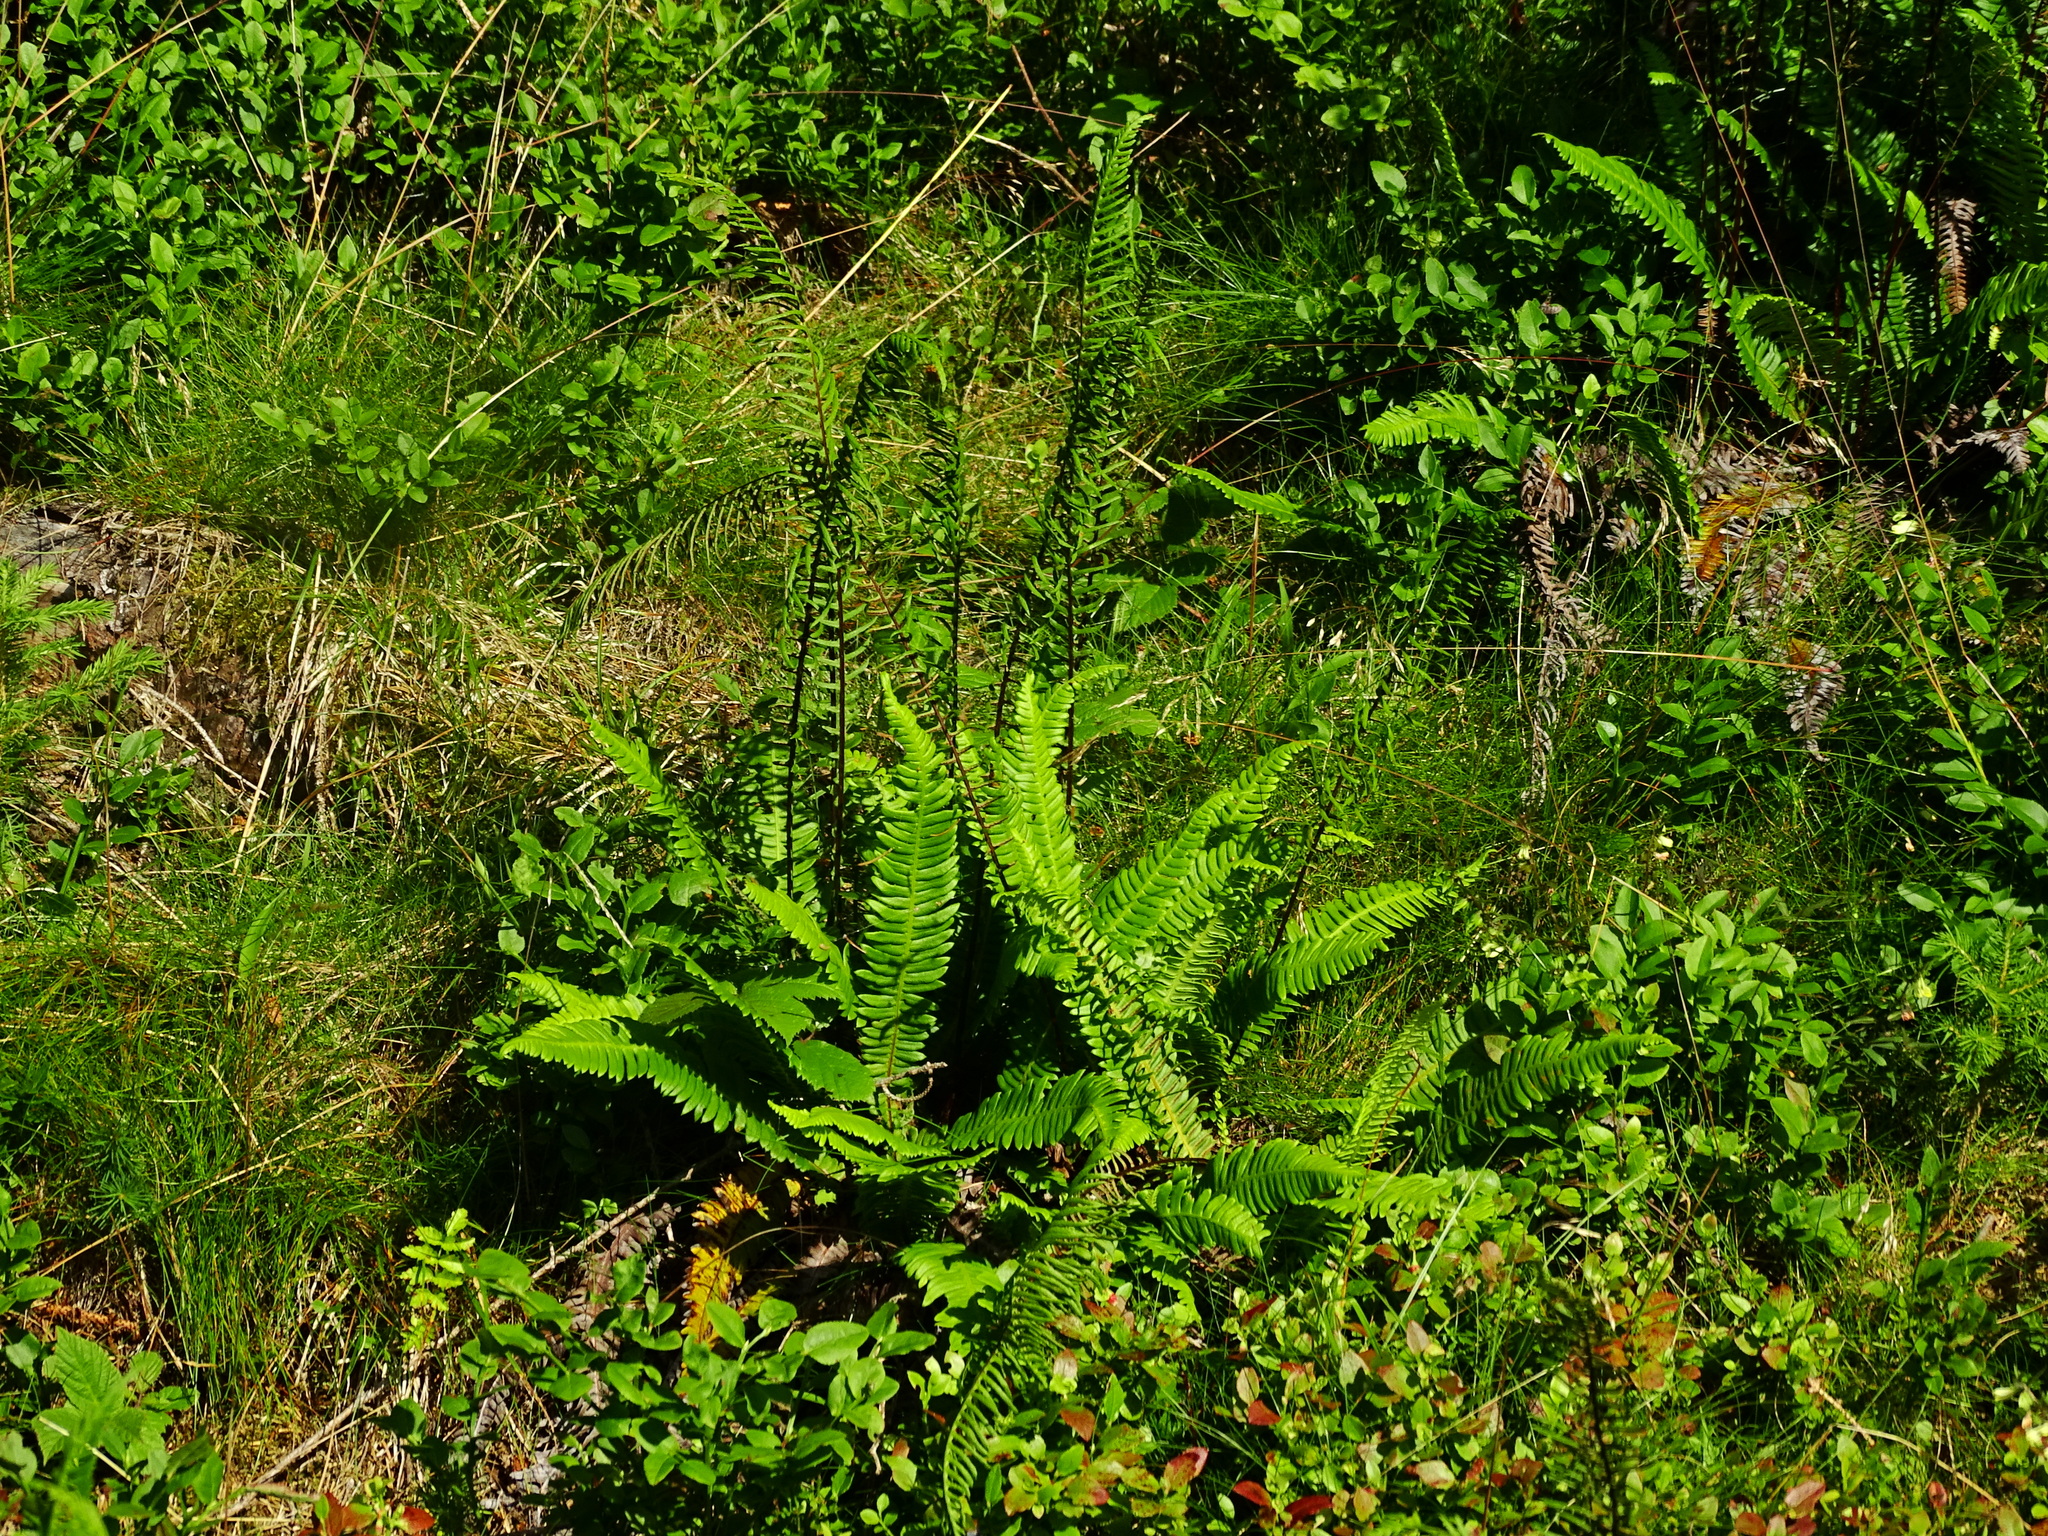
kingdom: Plantae
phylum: Tracheophyta
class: Polypodiopsida
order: Polypodiales
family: Blechnaceae
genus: Struthiopteris
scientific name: Struthiopteris spicant
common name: Deer fern
